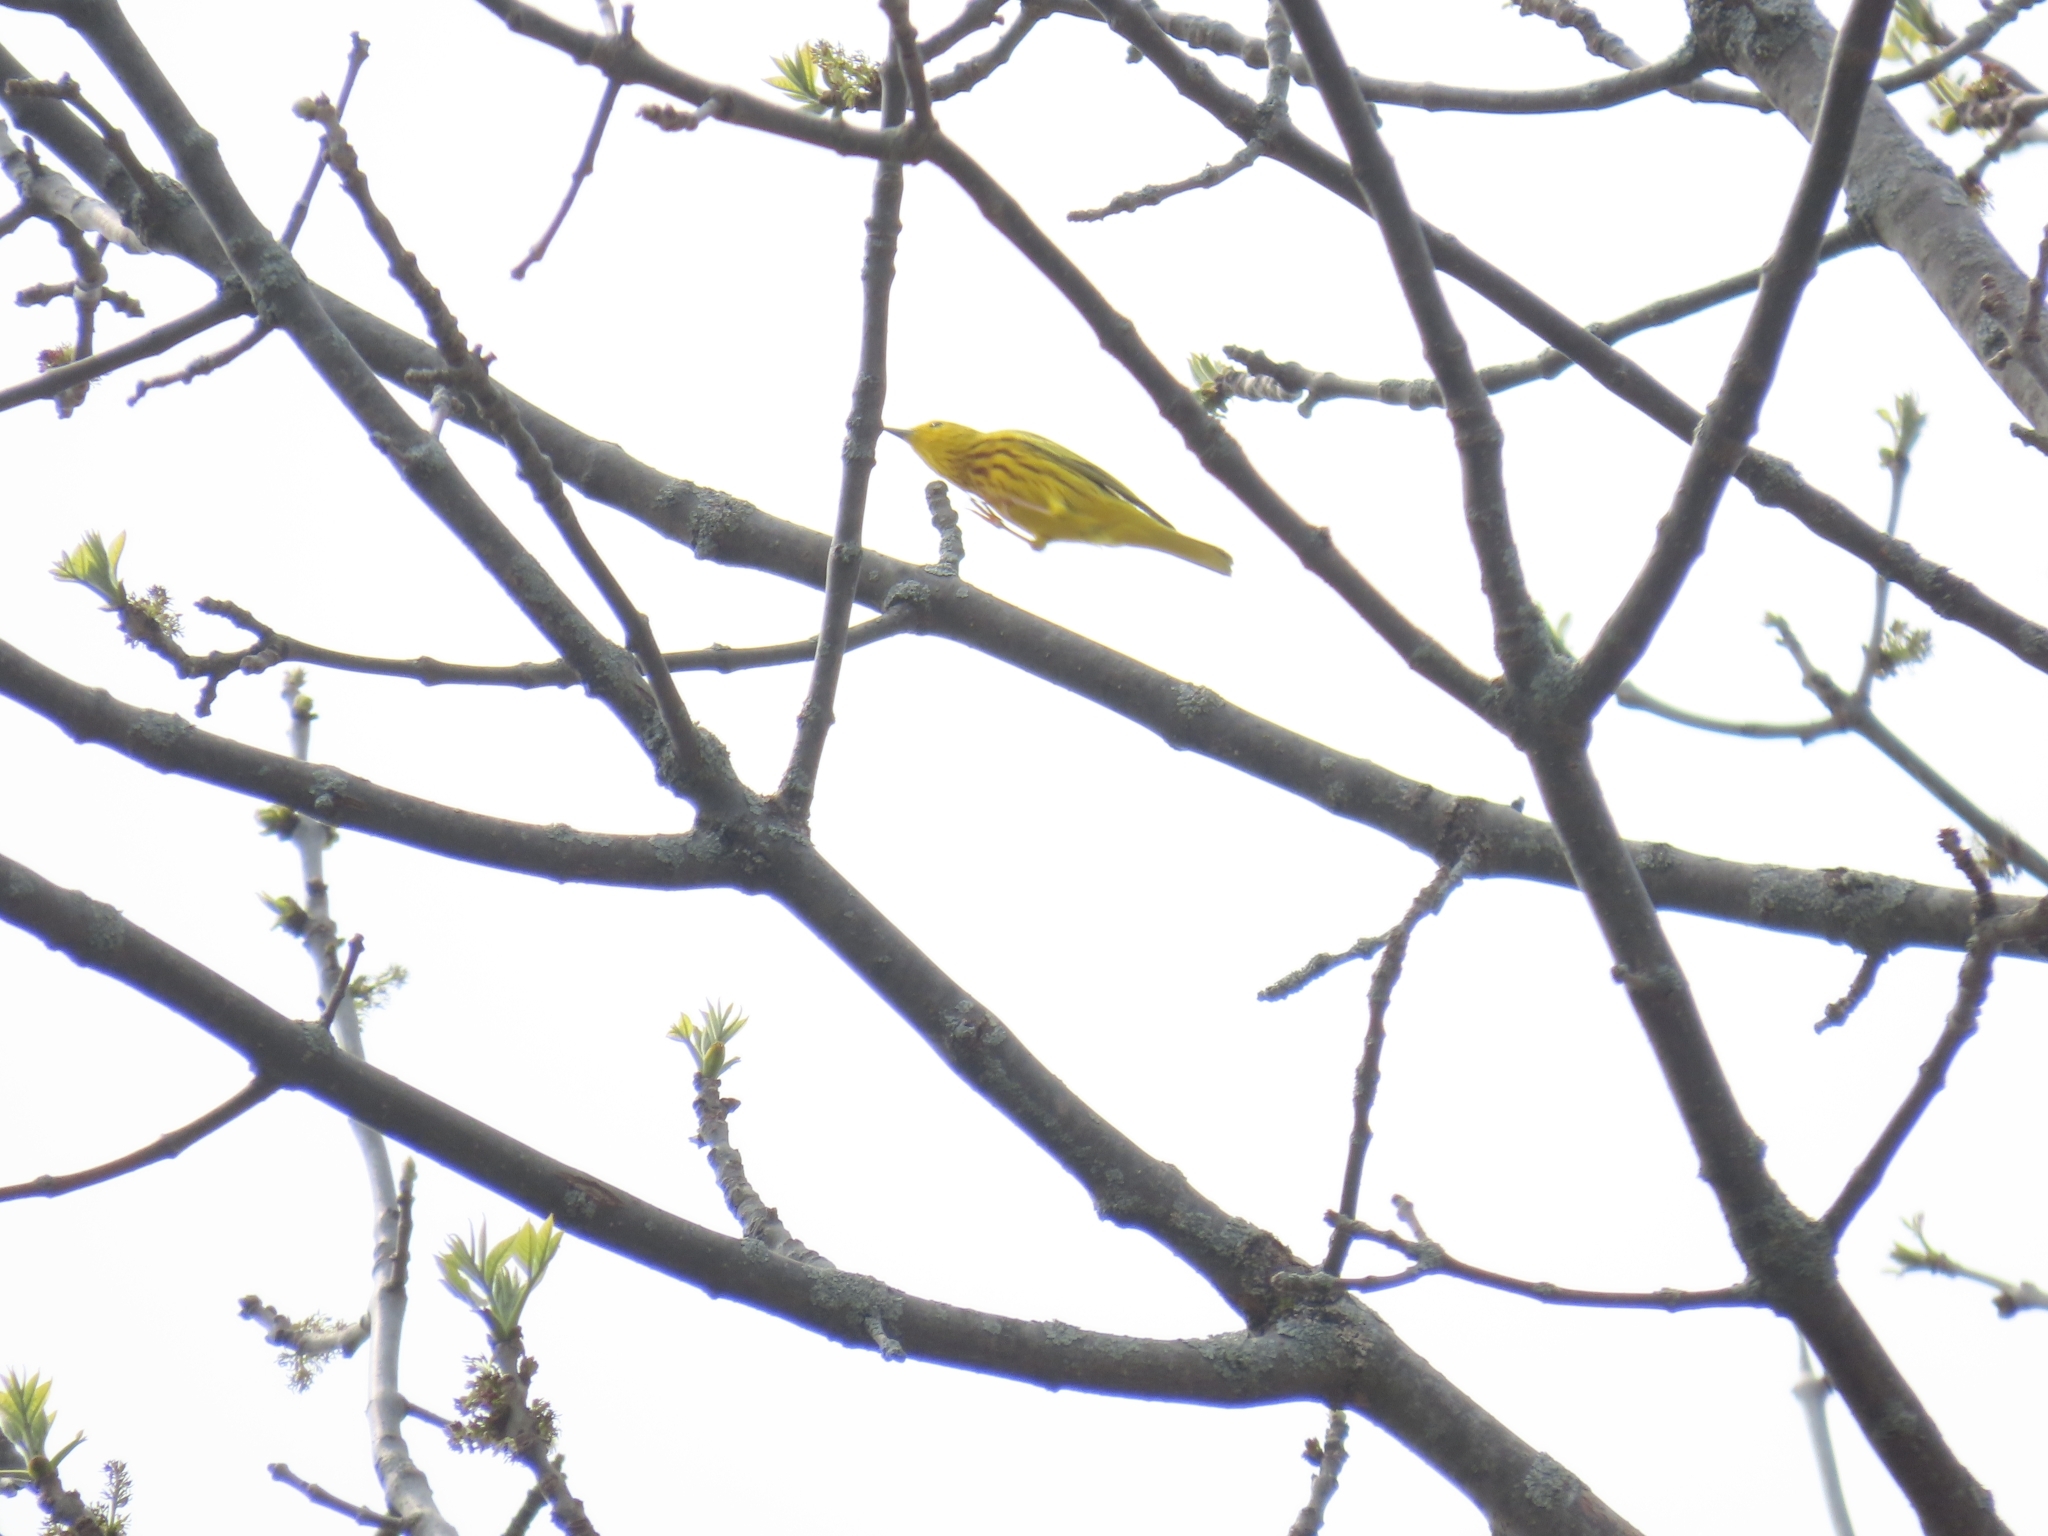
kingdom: Animalia
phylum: Chordata
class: Aves
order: Passeriformes
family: Parulidae
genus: Setophaga
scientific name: Setophaga petechia
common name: Yellow warbler
